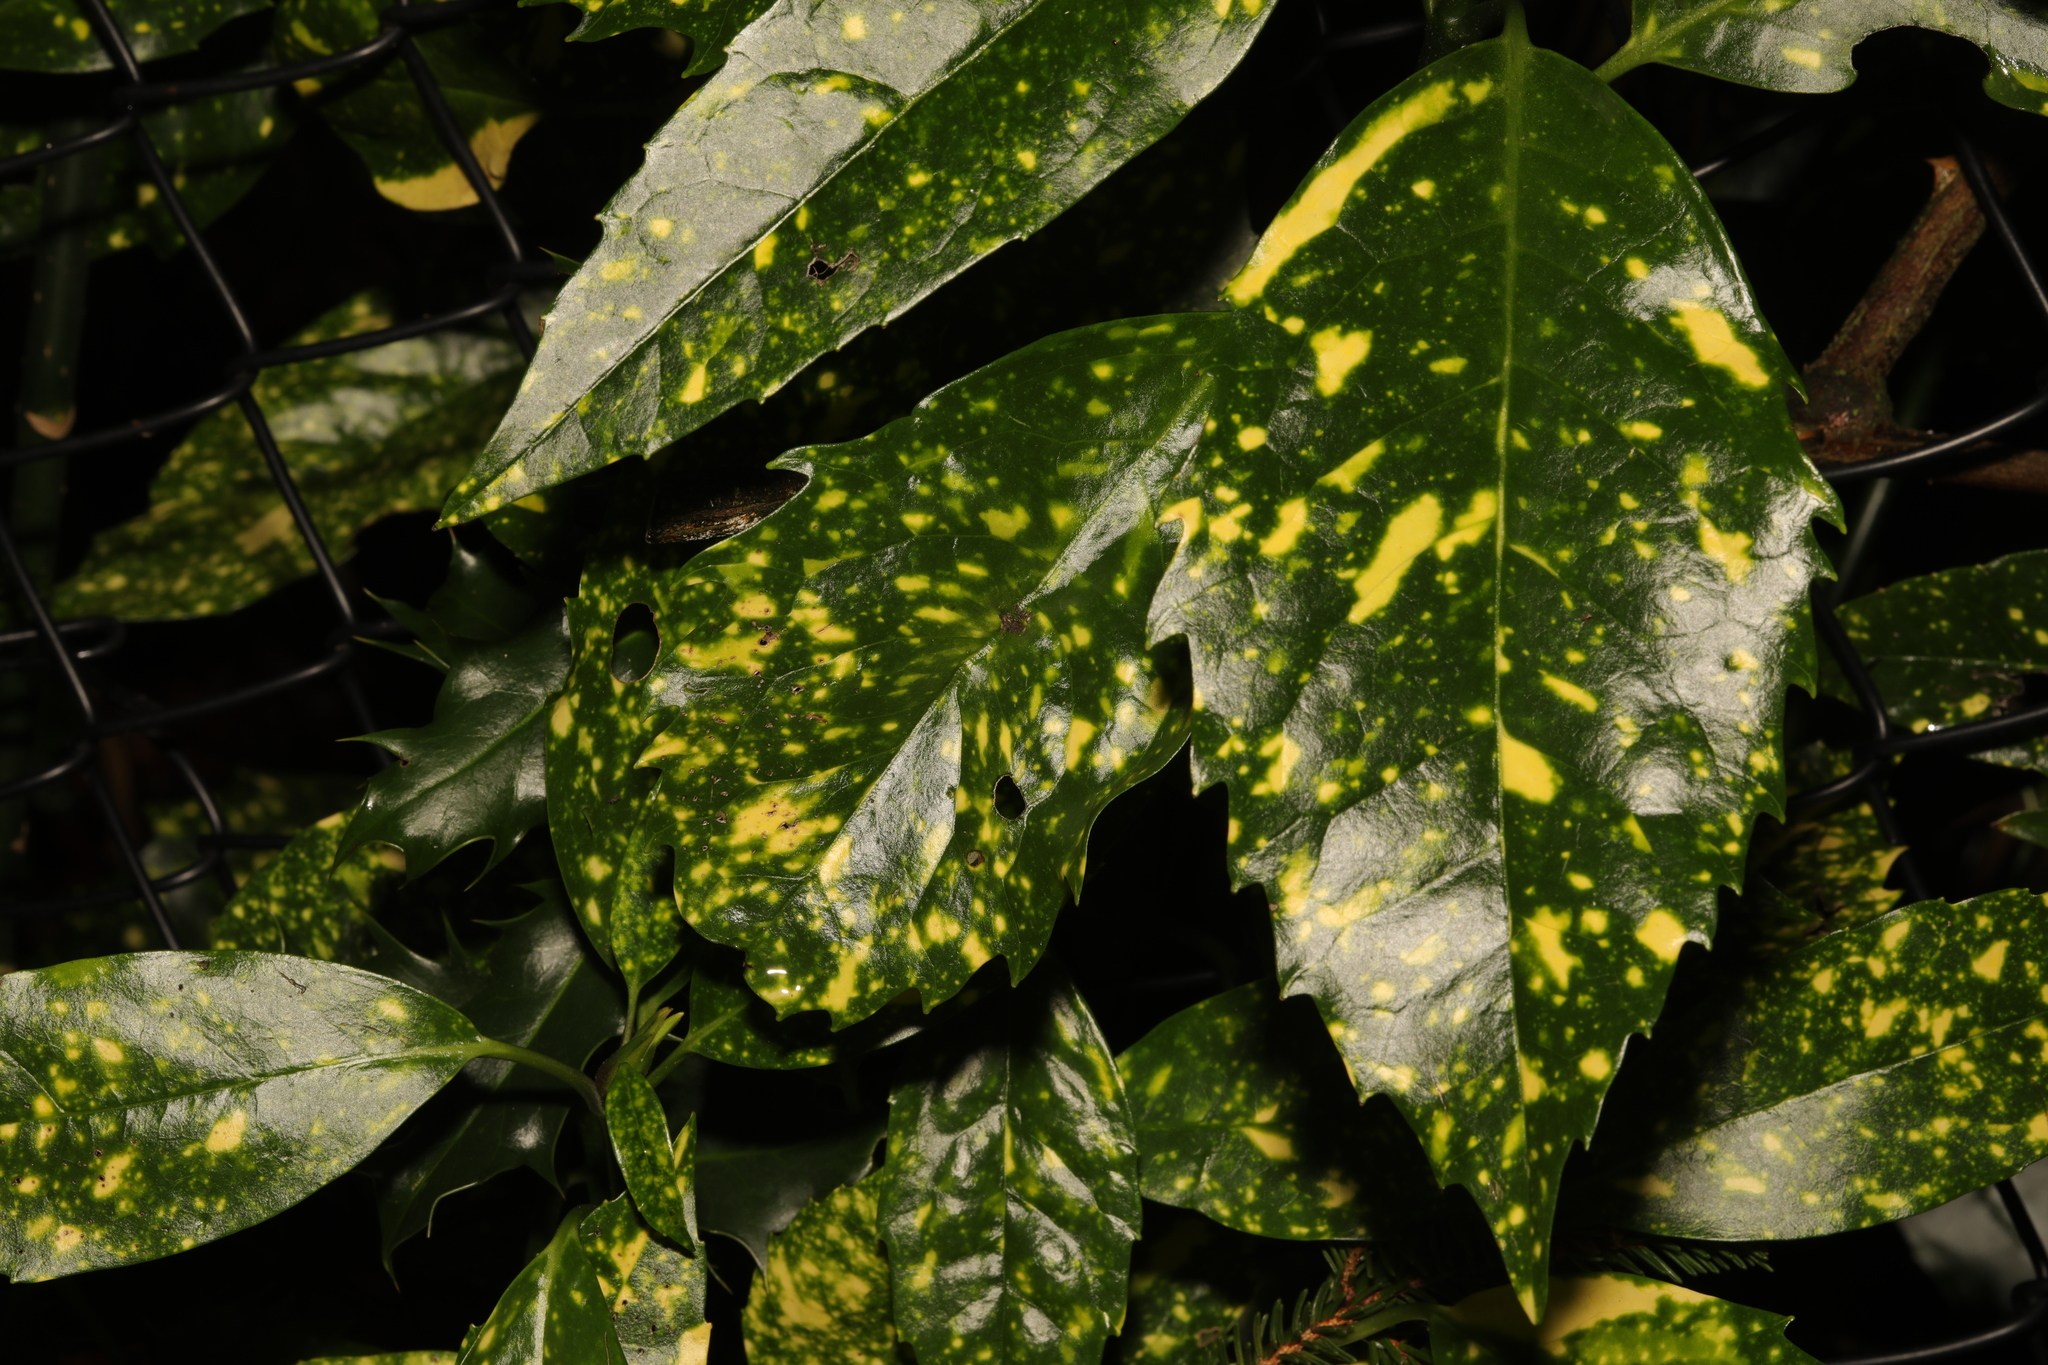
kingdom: Plantae
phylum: Tracheophyta
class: Magnoliopsida
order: Garryales
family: Garryaceae
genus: Aucuba
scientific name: Aucuba japonica
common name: Spotted-laurel
